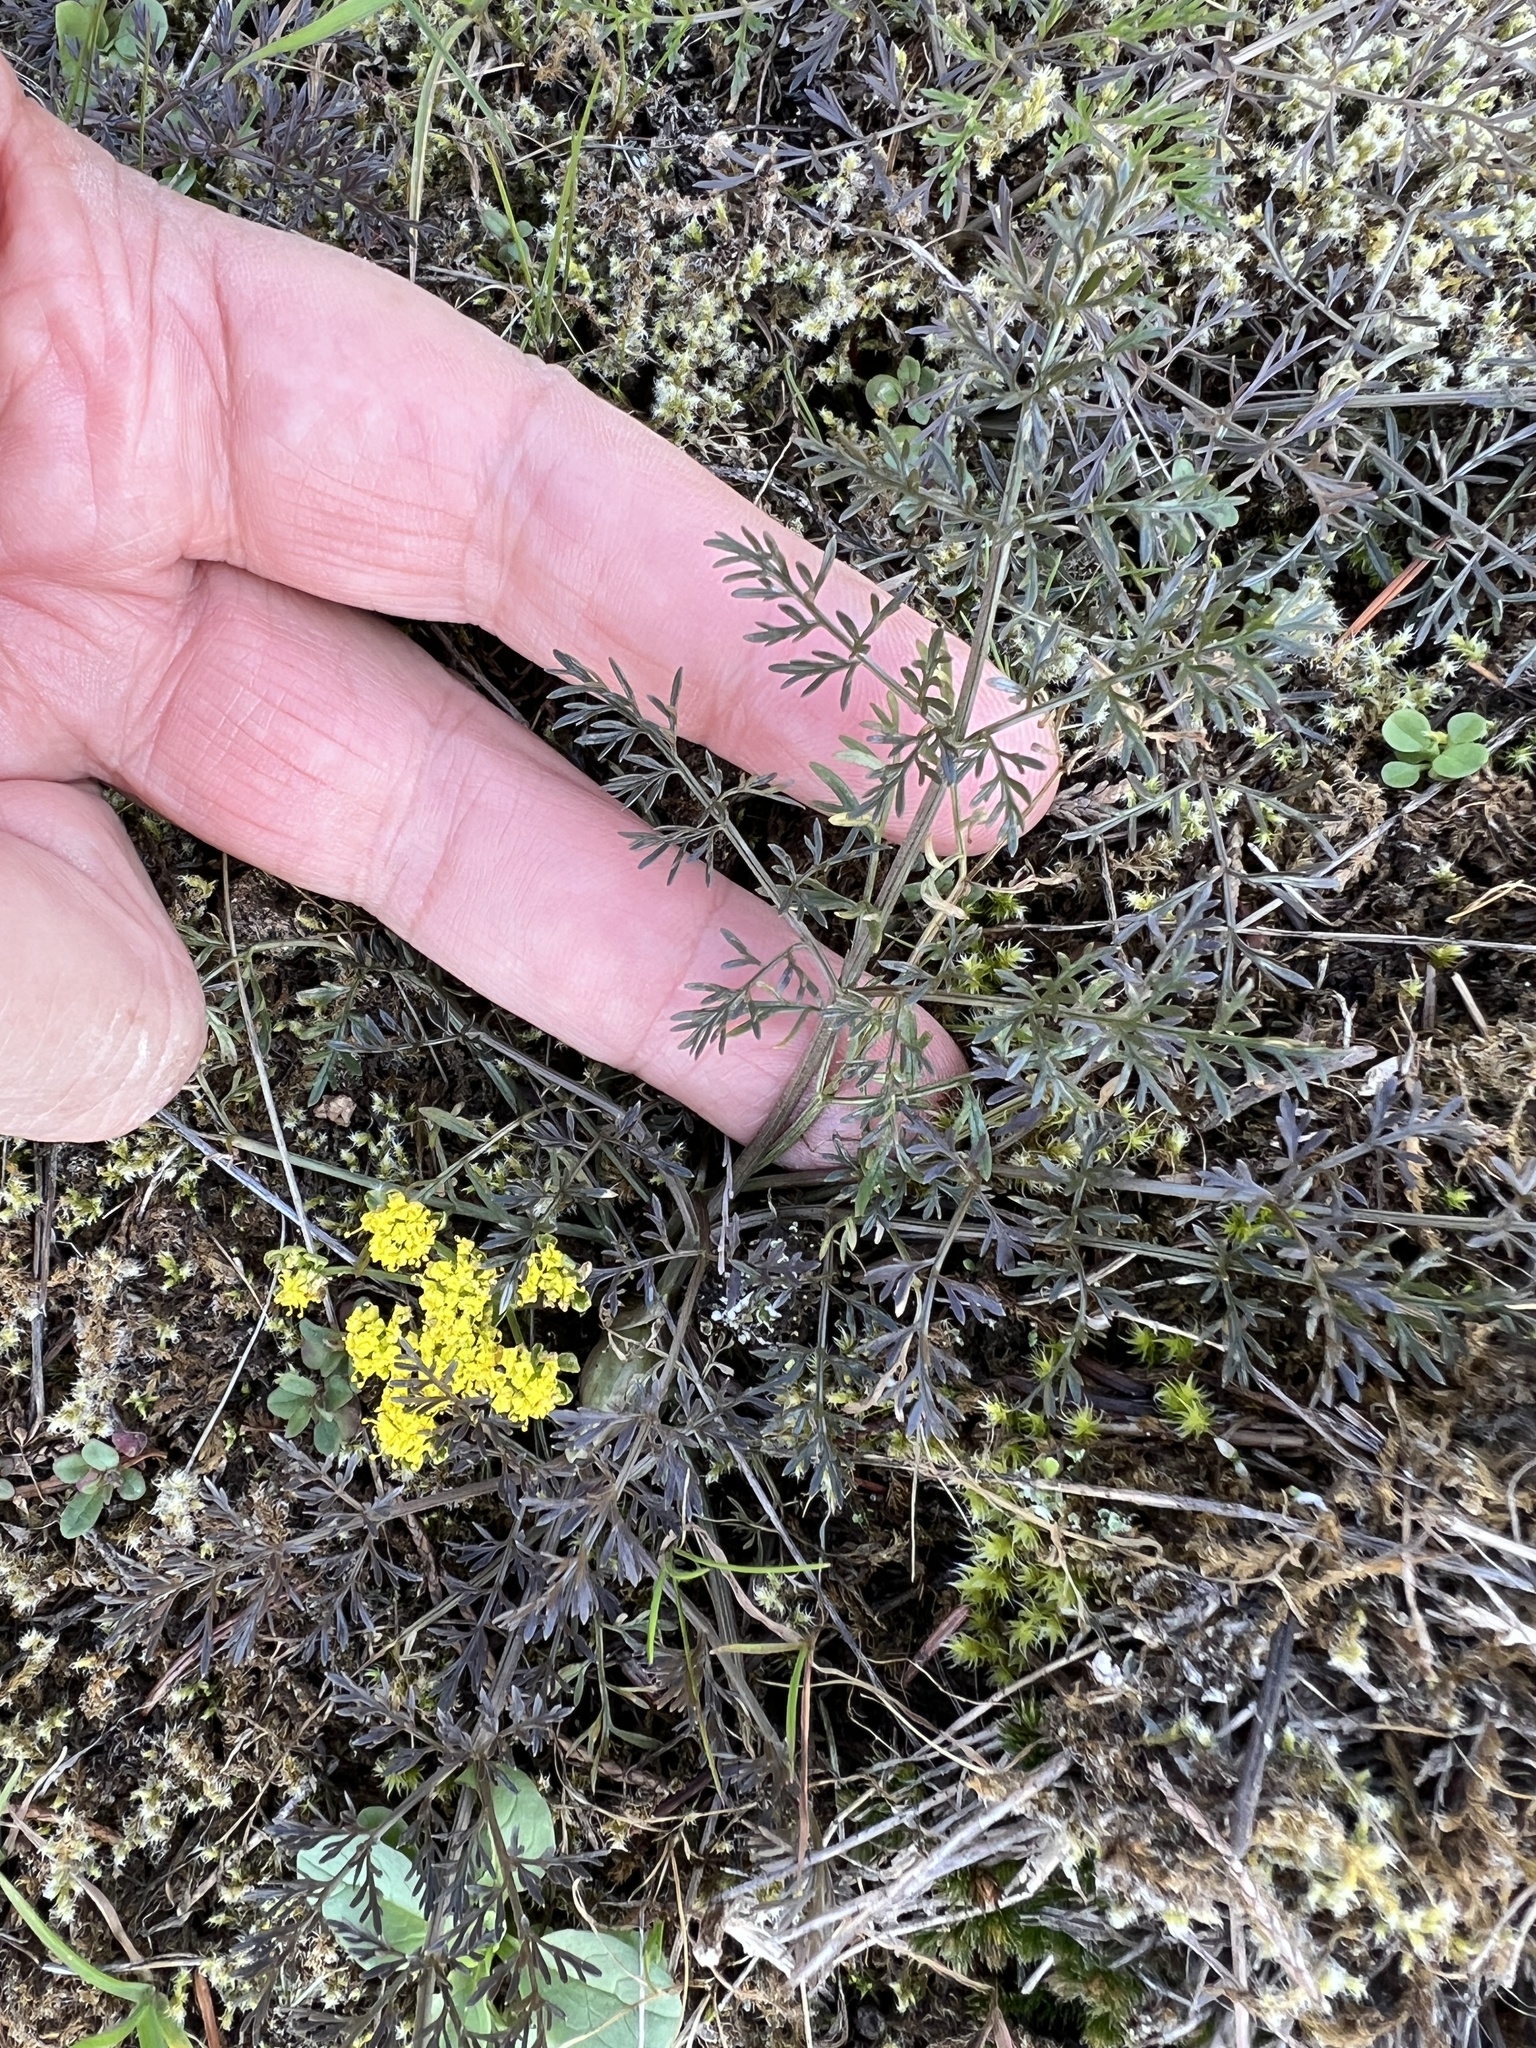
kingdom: Plantae
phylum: Tracheophyta
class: Magnoliopsida
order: Apiales
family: Apiaceae
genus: Lomatium
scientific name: Lomatium utriculatum
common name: Fine-leaf desert-parsley
